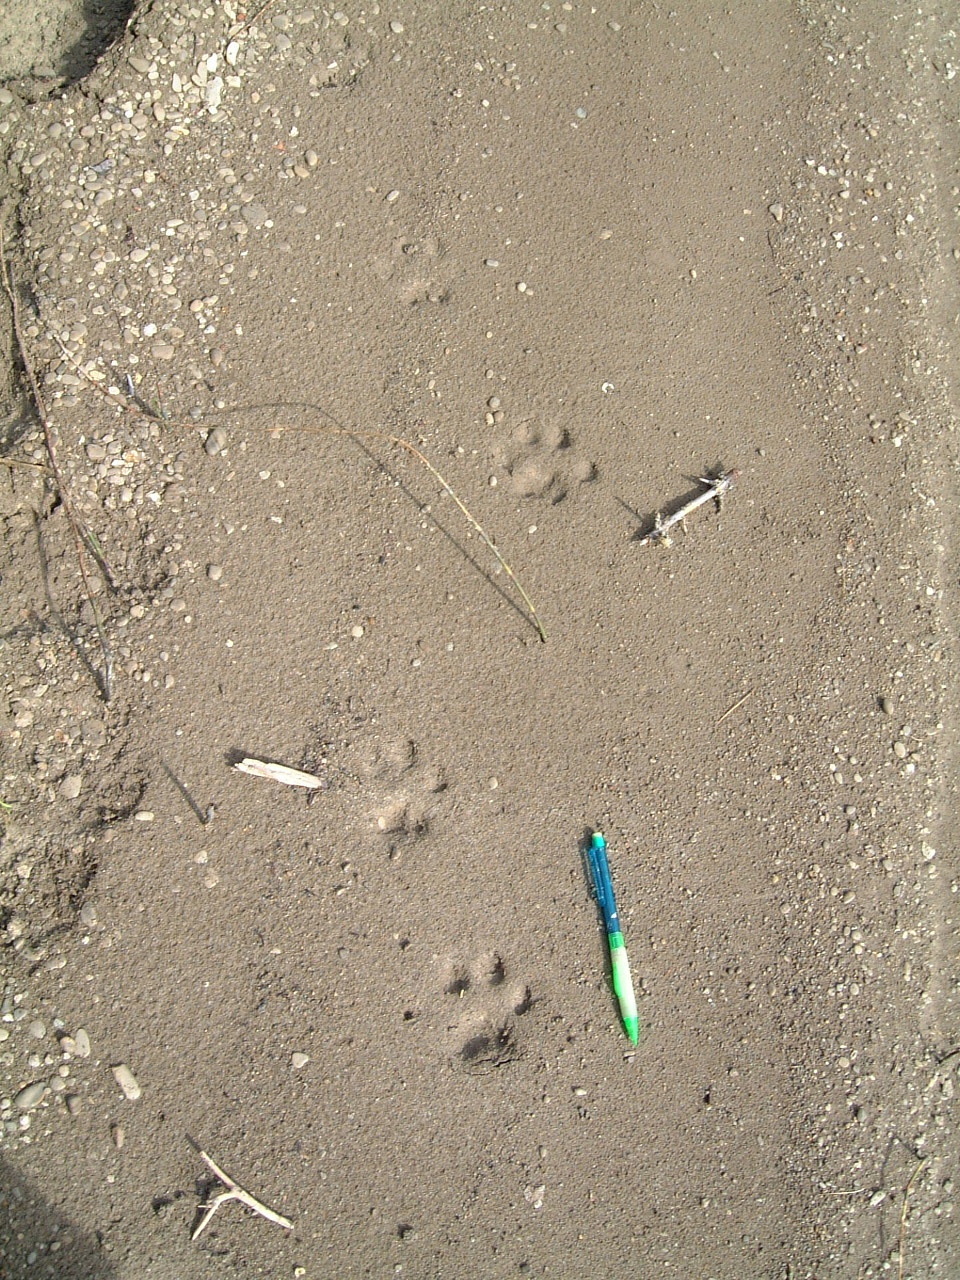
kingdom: Animalia
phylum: Chordata
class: Mammalia
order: Carnivora
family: Felidae
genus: Lynx
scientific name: Lynx canadensis
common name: Canadian lynx
